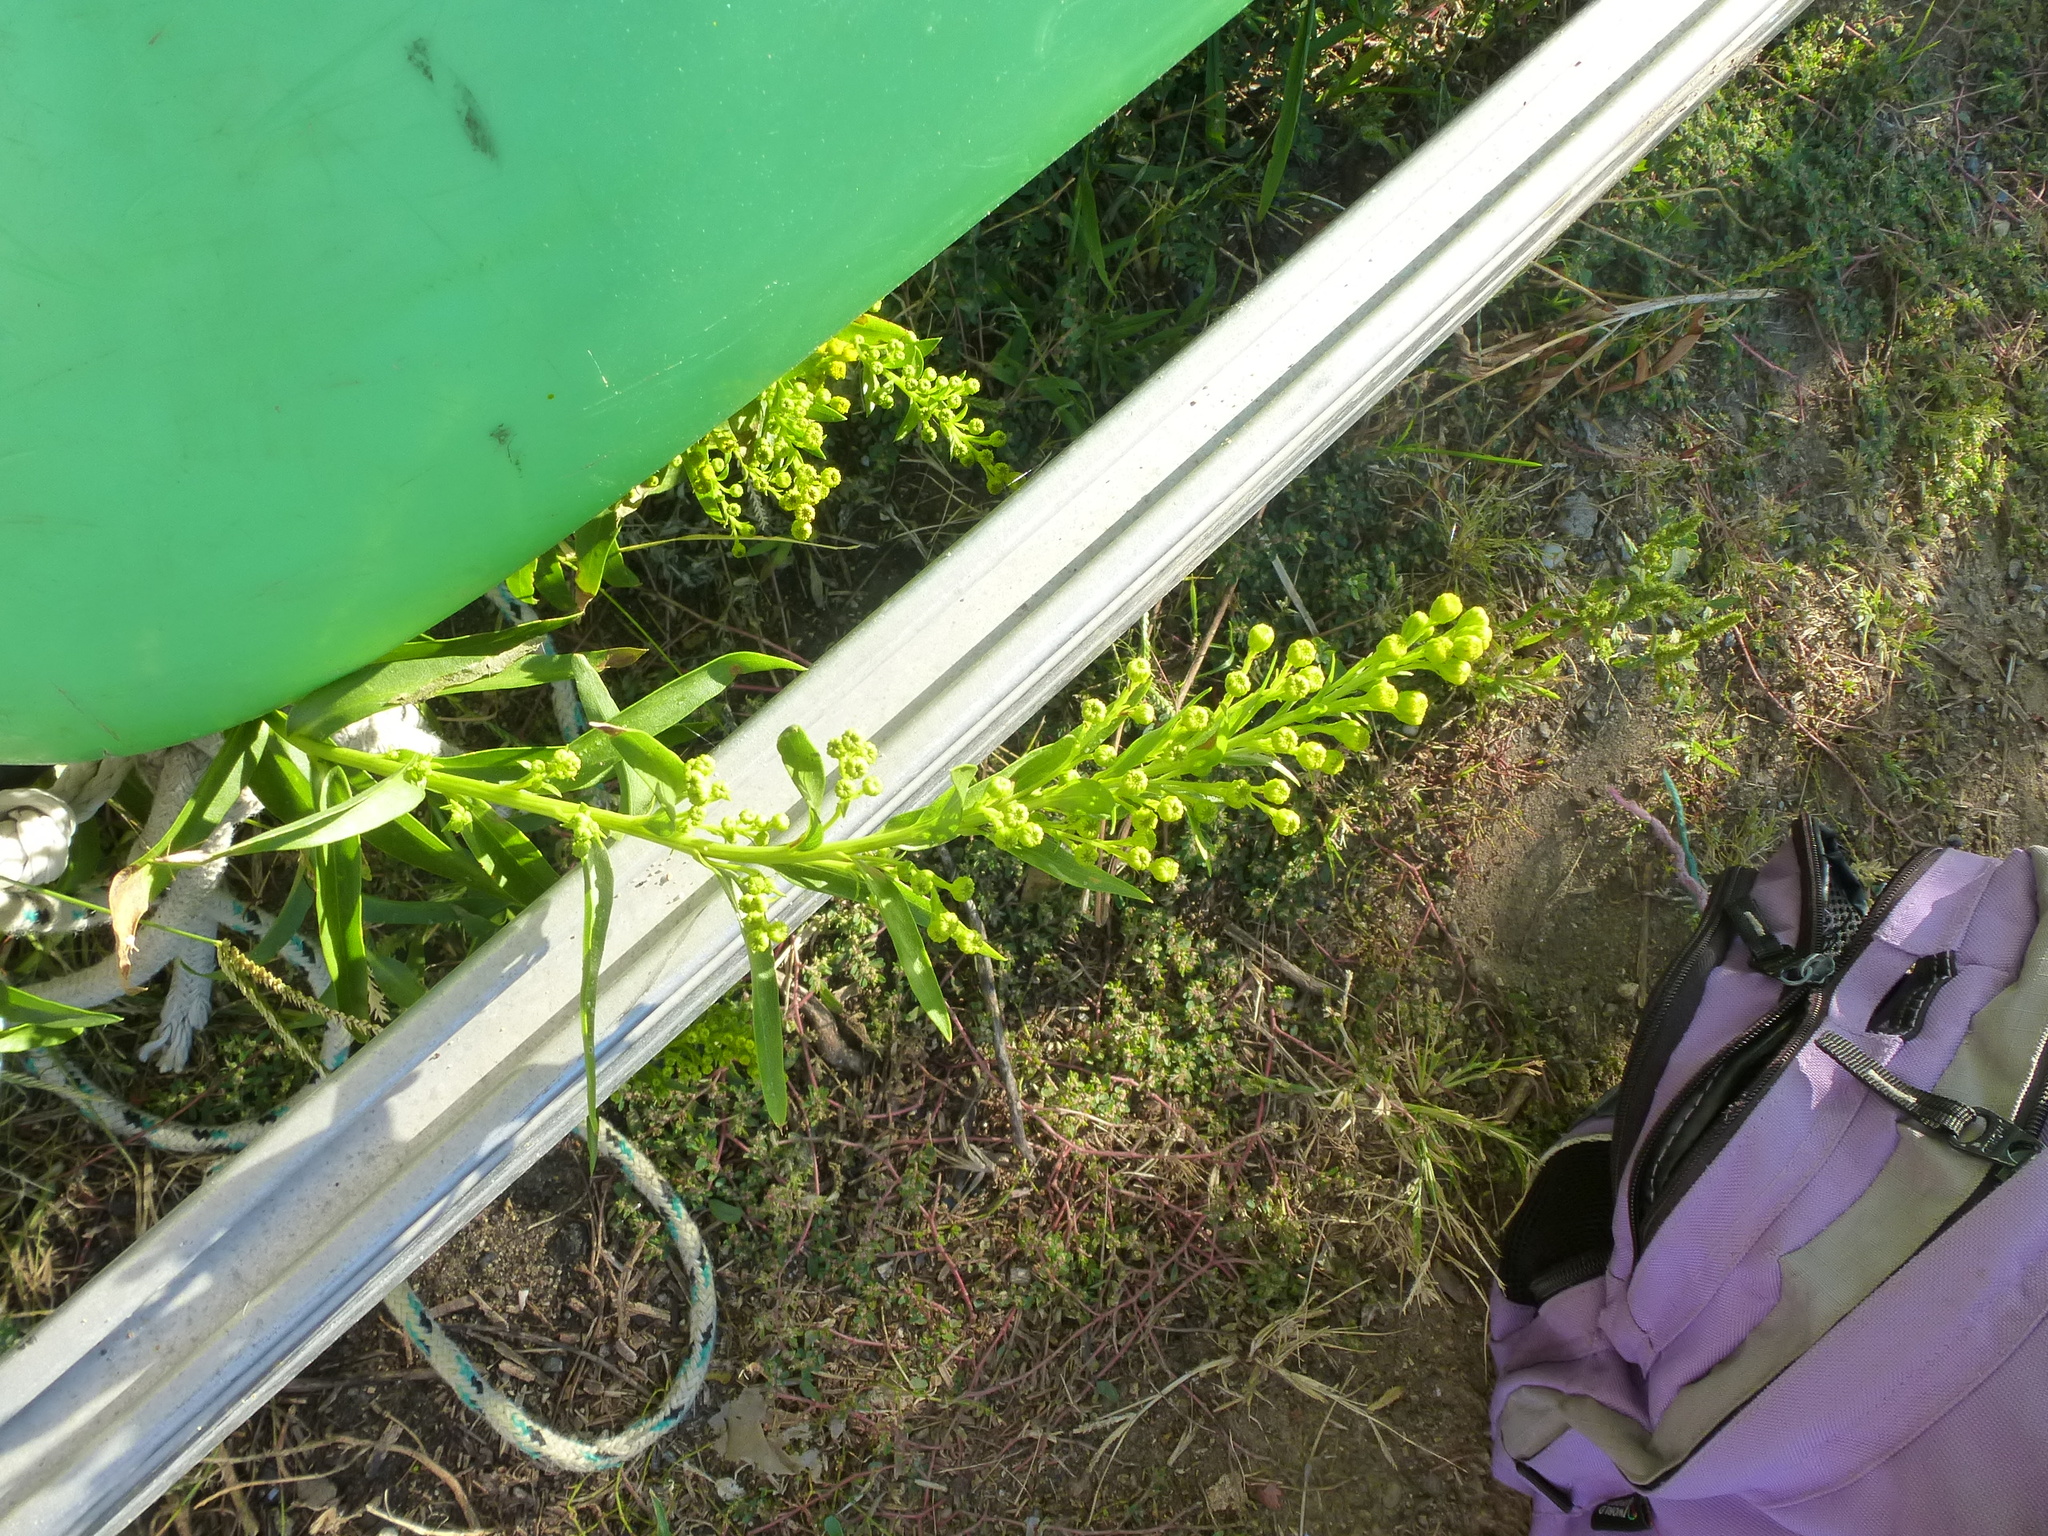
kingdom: Plantae
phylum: Tracheophyta
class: Magnoliopsida
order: Asterales
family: Asteraceae
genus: Solidago
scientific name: Solidago sempervirens
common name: Salt-marsh goldenrod
